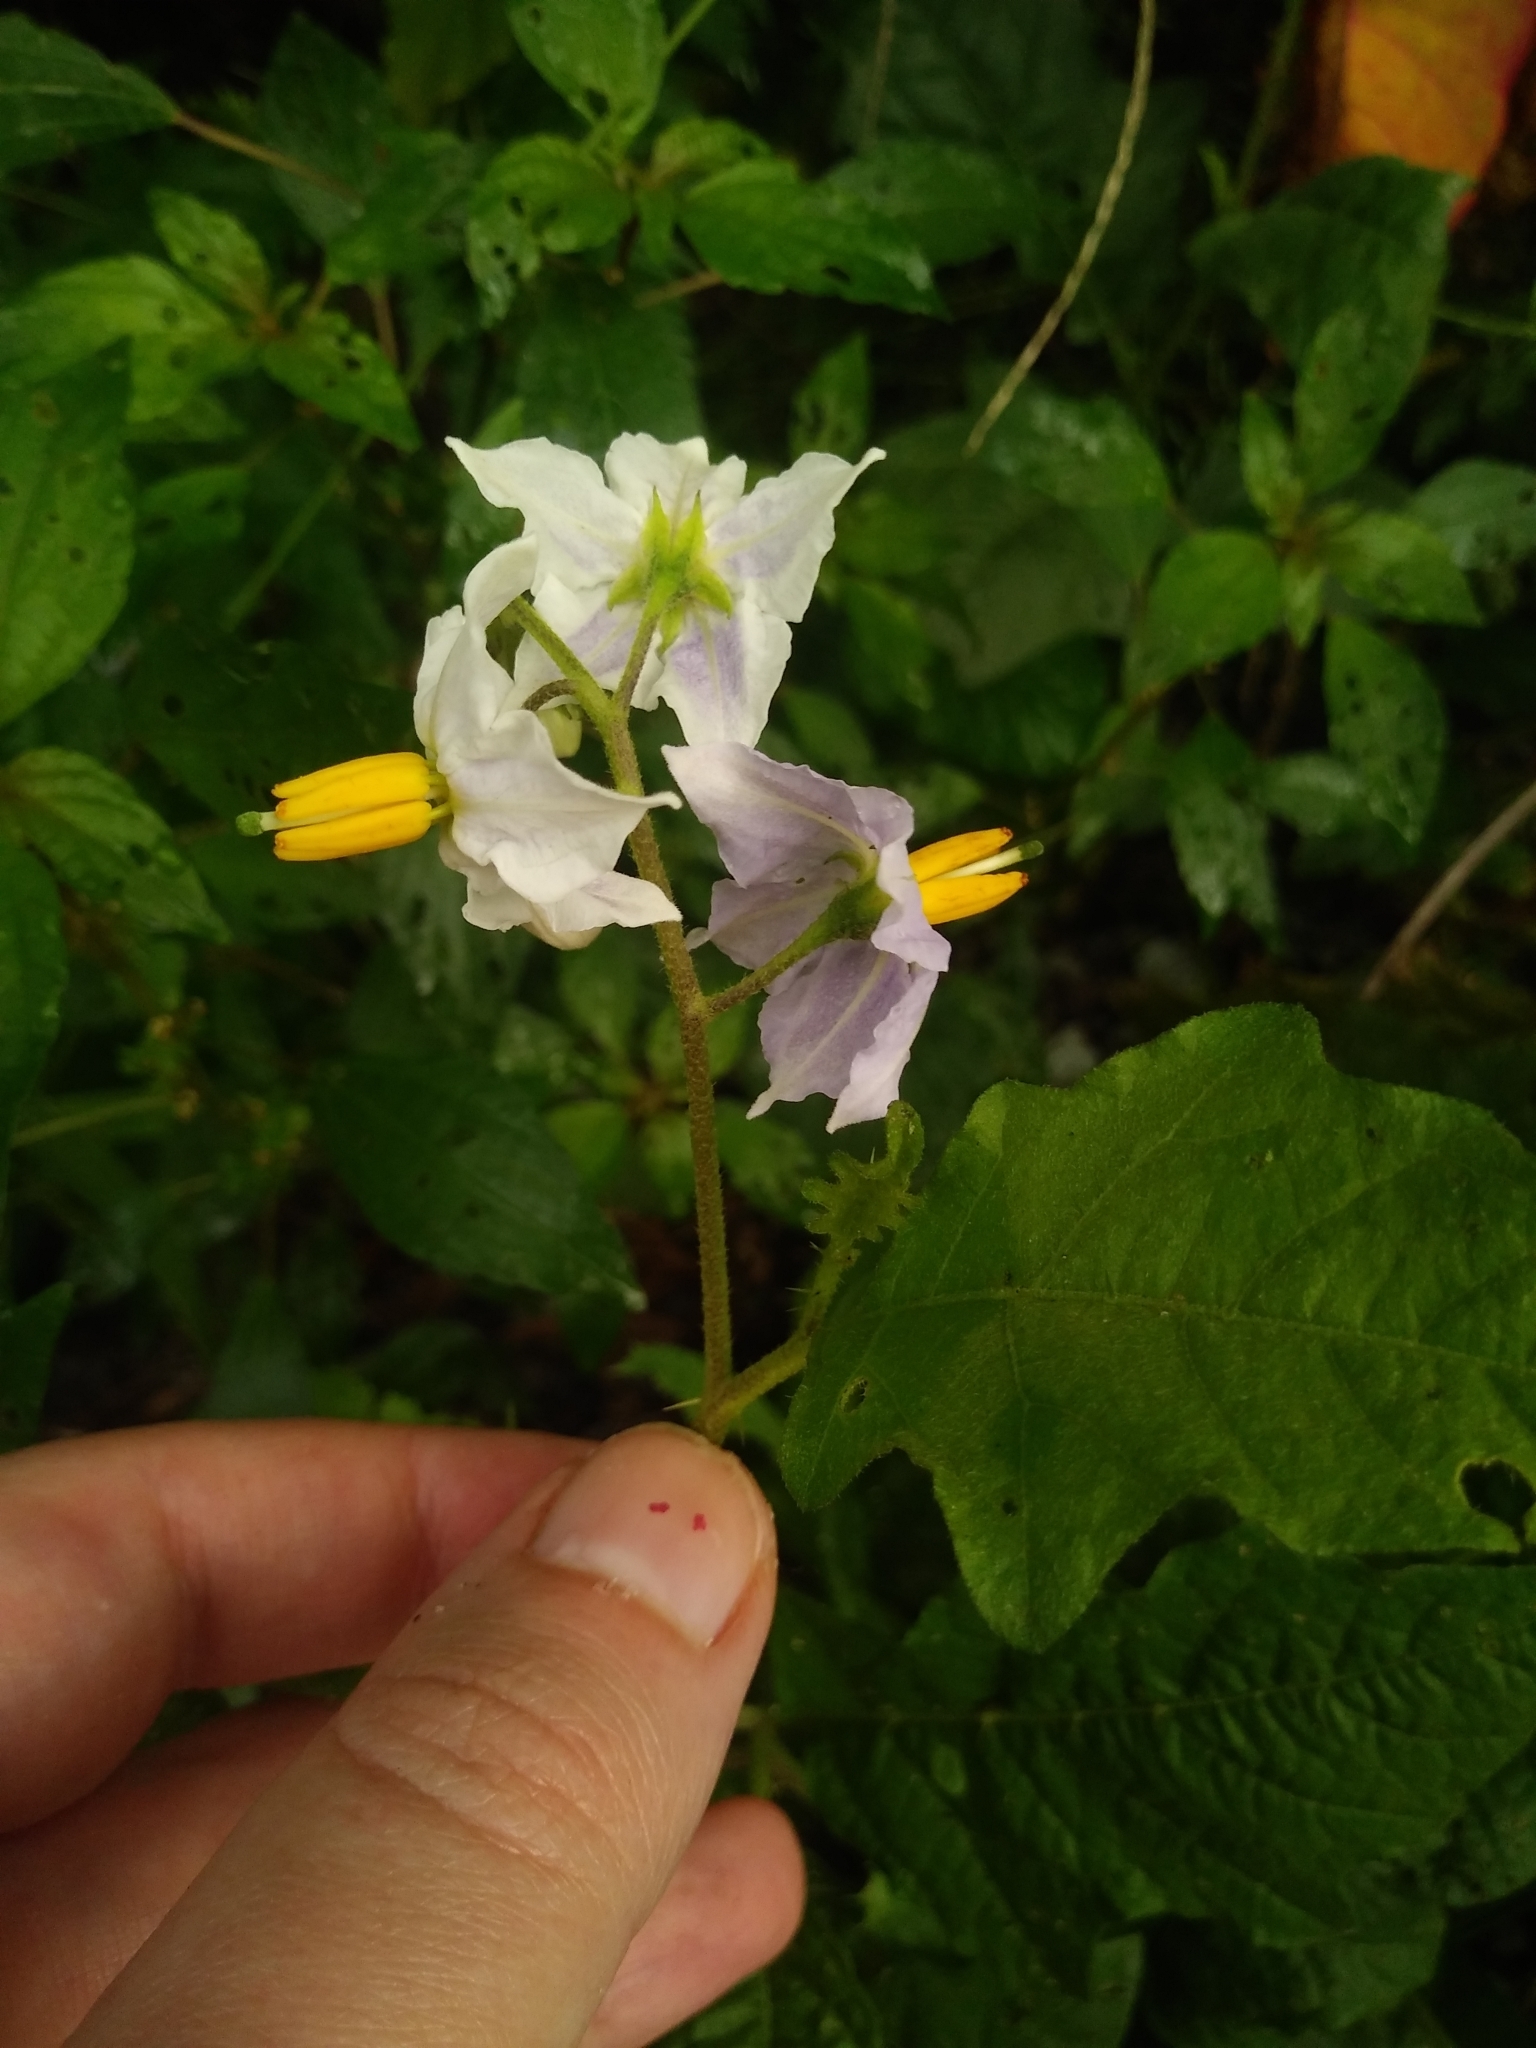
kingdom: Plantae
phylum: Tracheophyta
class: Magnoliopsida
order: Solanales
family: Solanaceae
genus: Solanum
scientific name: Solanum carolinense
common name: Horse-nettle
